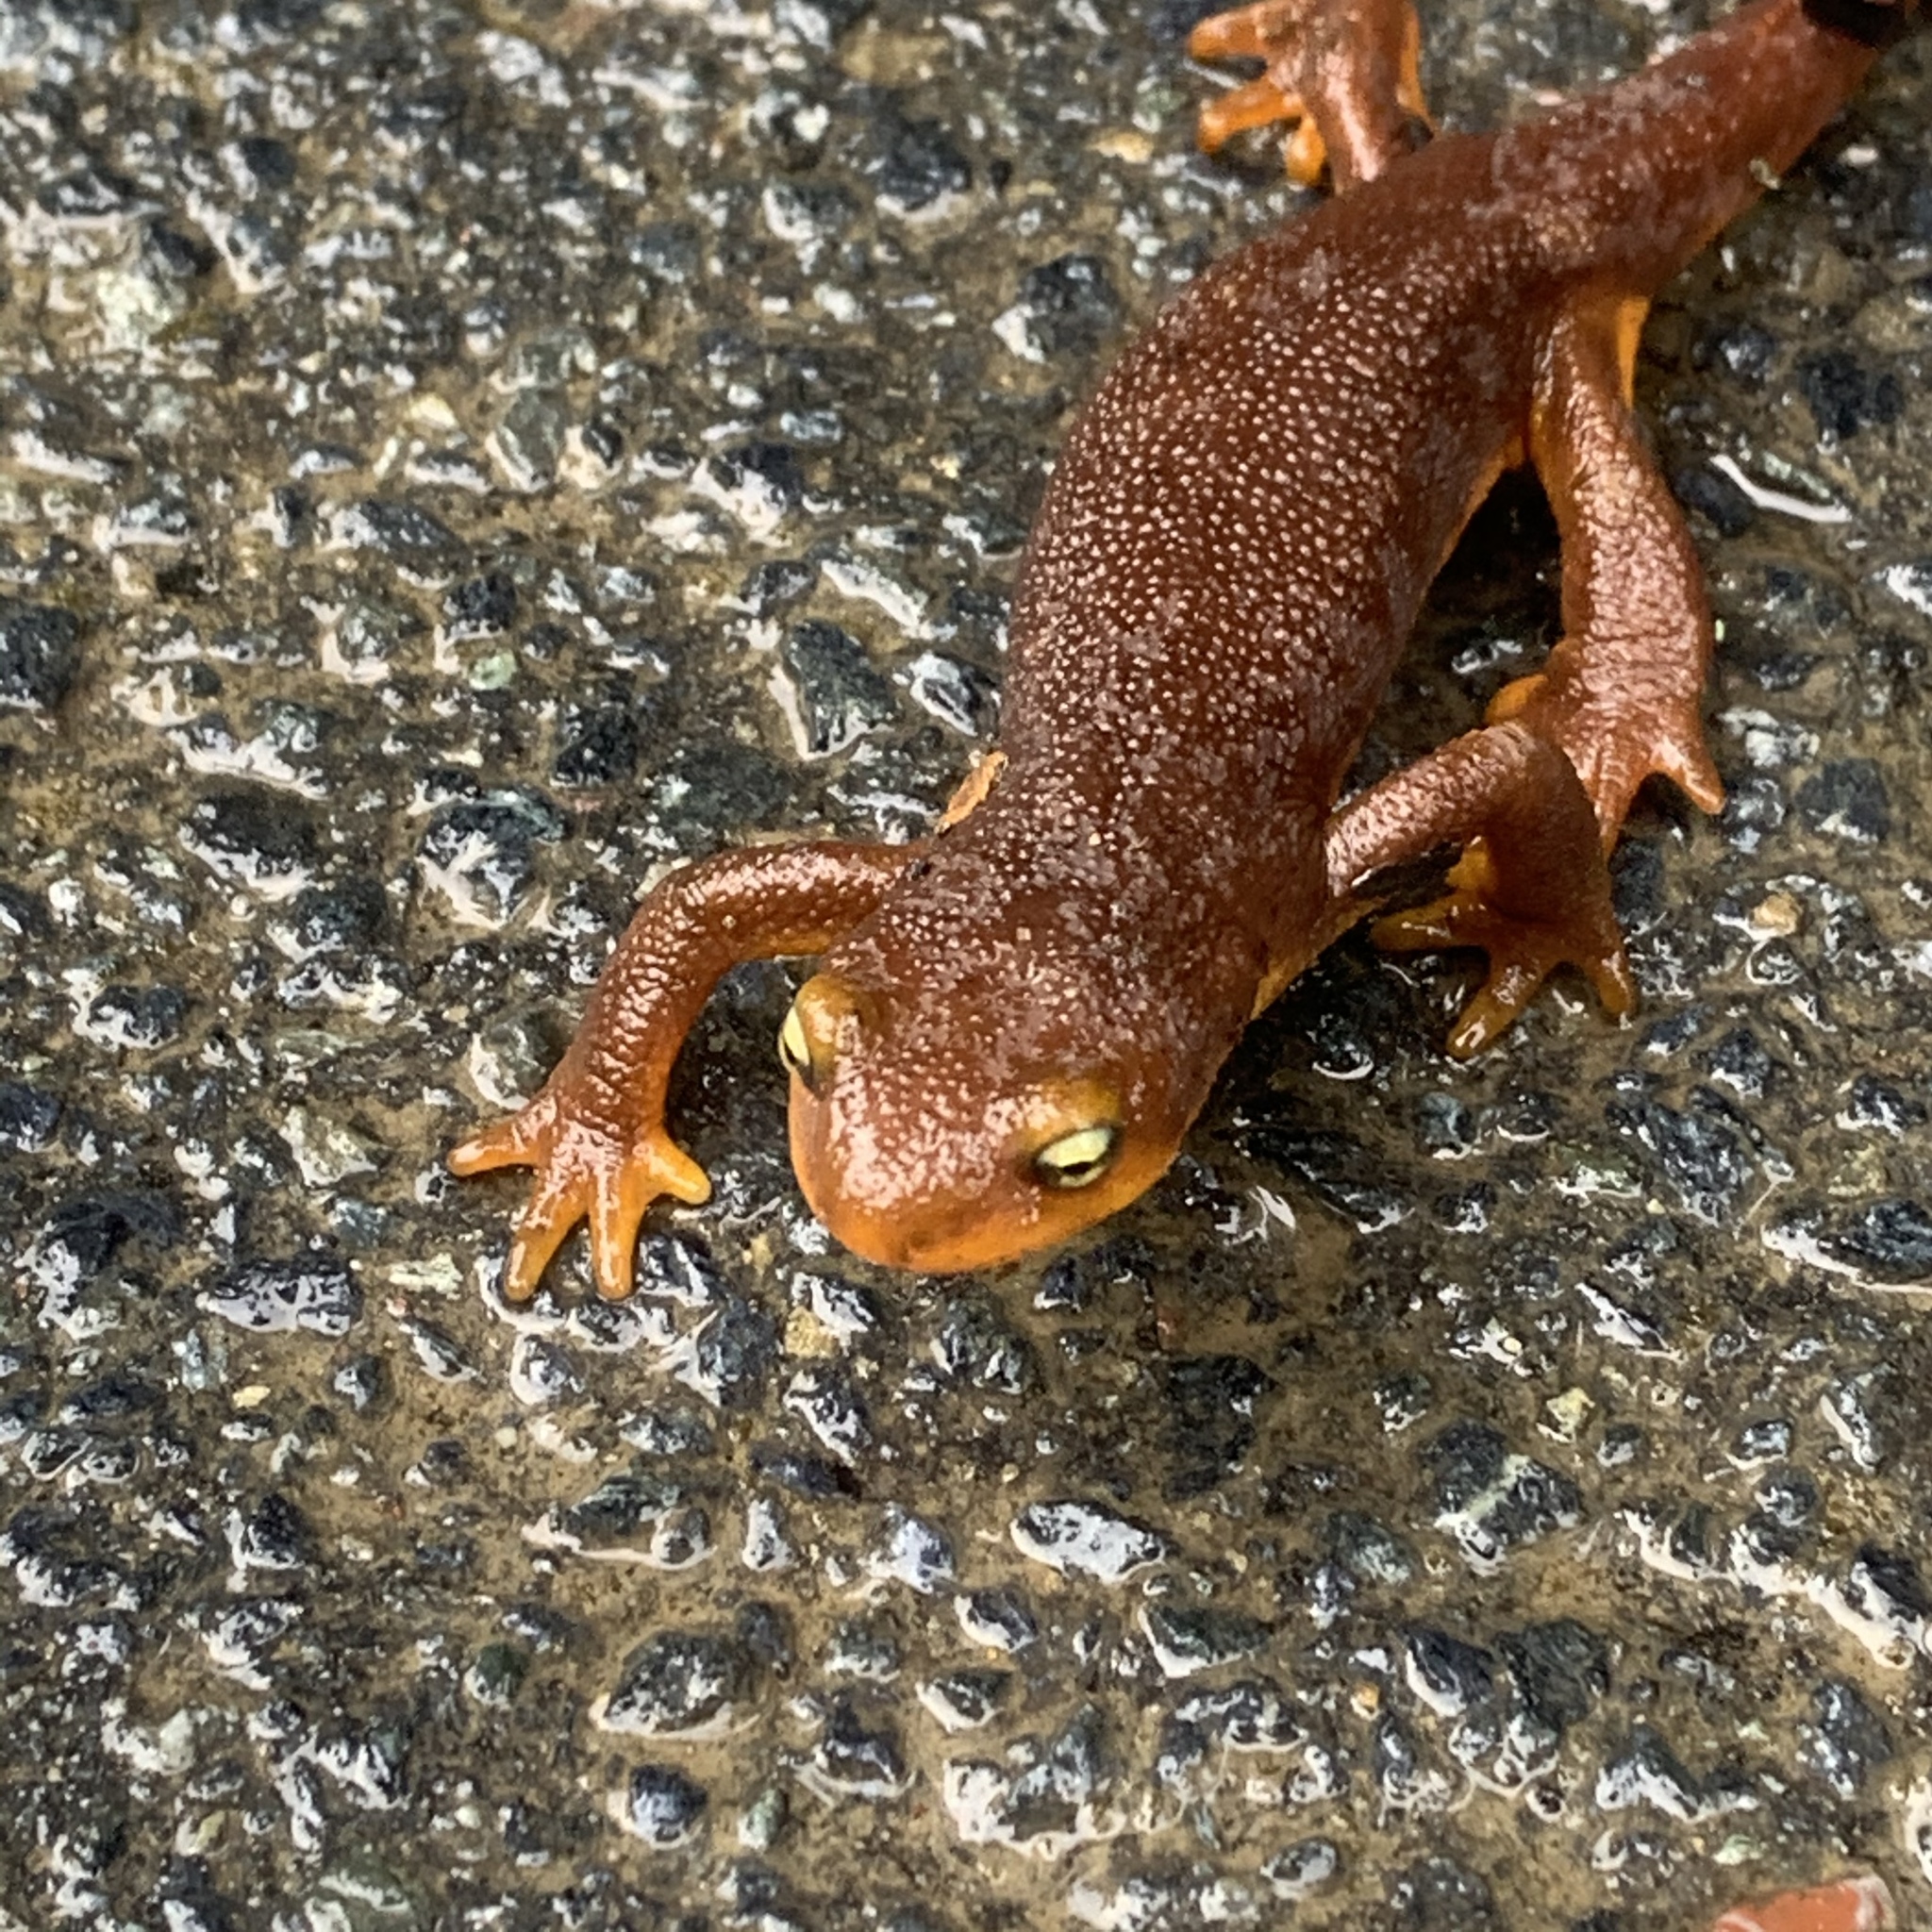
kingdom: Animalia
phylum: Chordata
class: Amphibia
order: Caudata
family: Salamandridae
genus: Taricha
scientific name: Taricha torosa
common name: California newt
